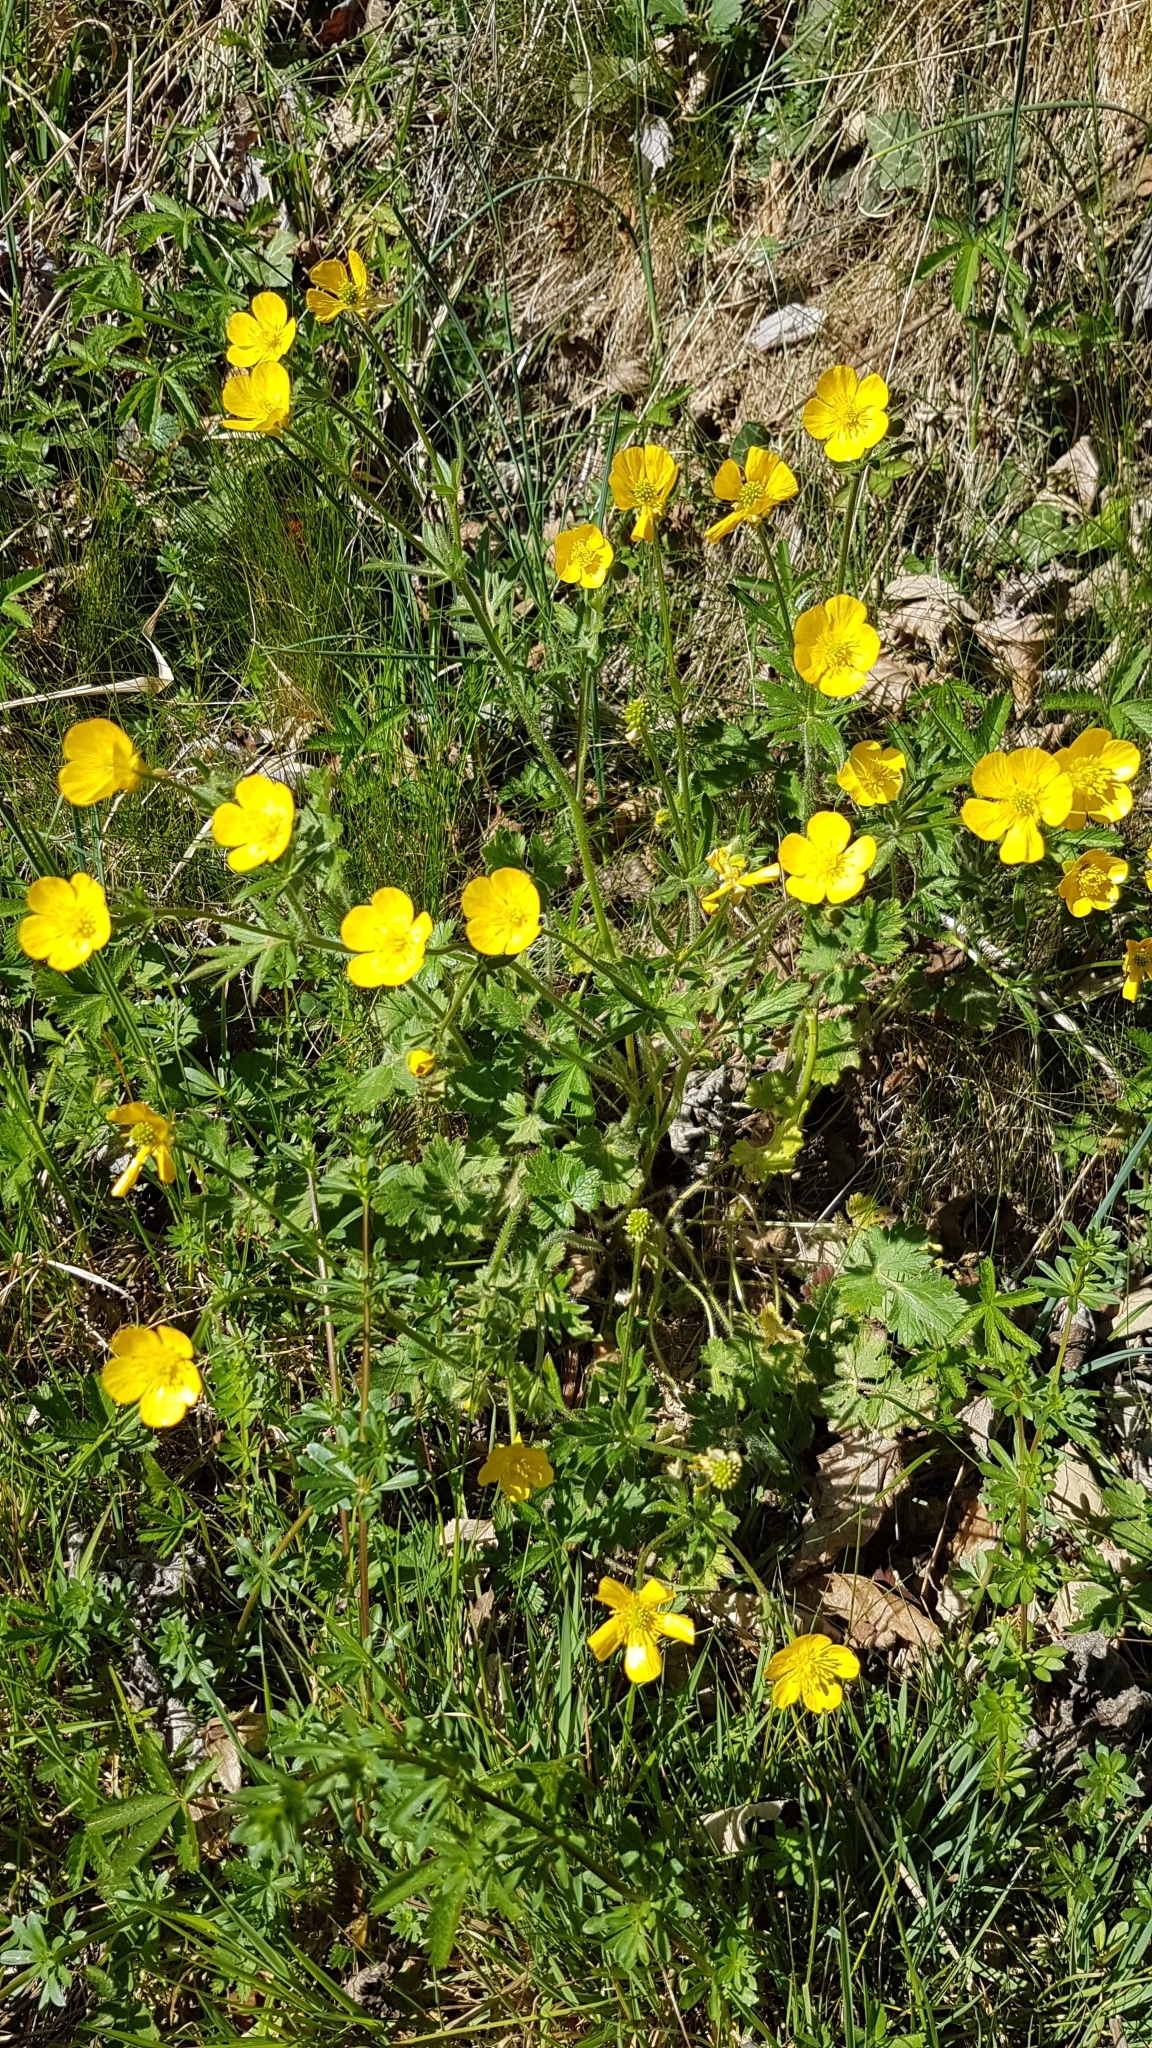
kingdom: Plantae
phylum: Tracheophyta
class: Magnoliopsida
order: Ranunculales
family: Ranunculaceae
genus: Ranunculus
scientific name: Ranunculus bulbosus
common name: Bulbous buttercup
